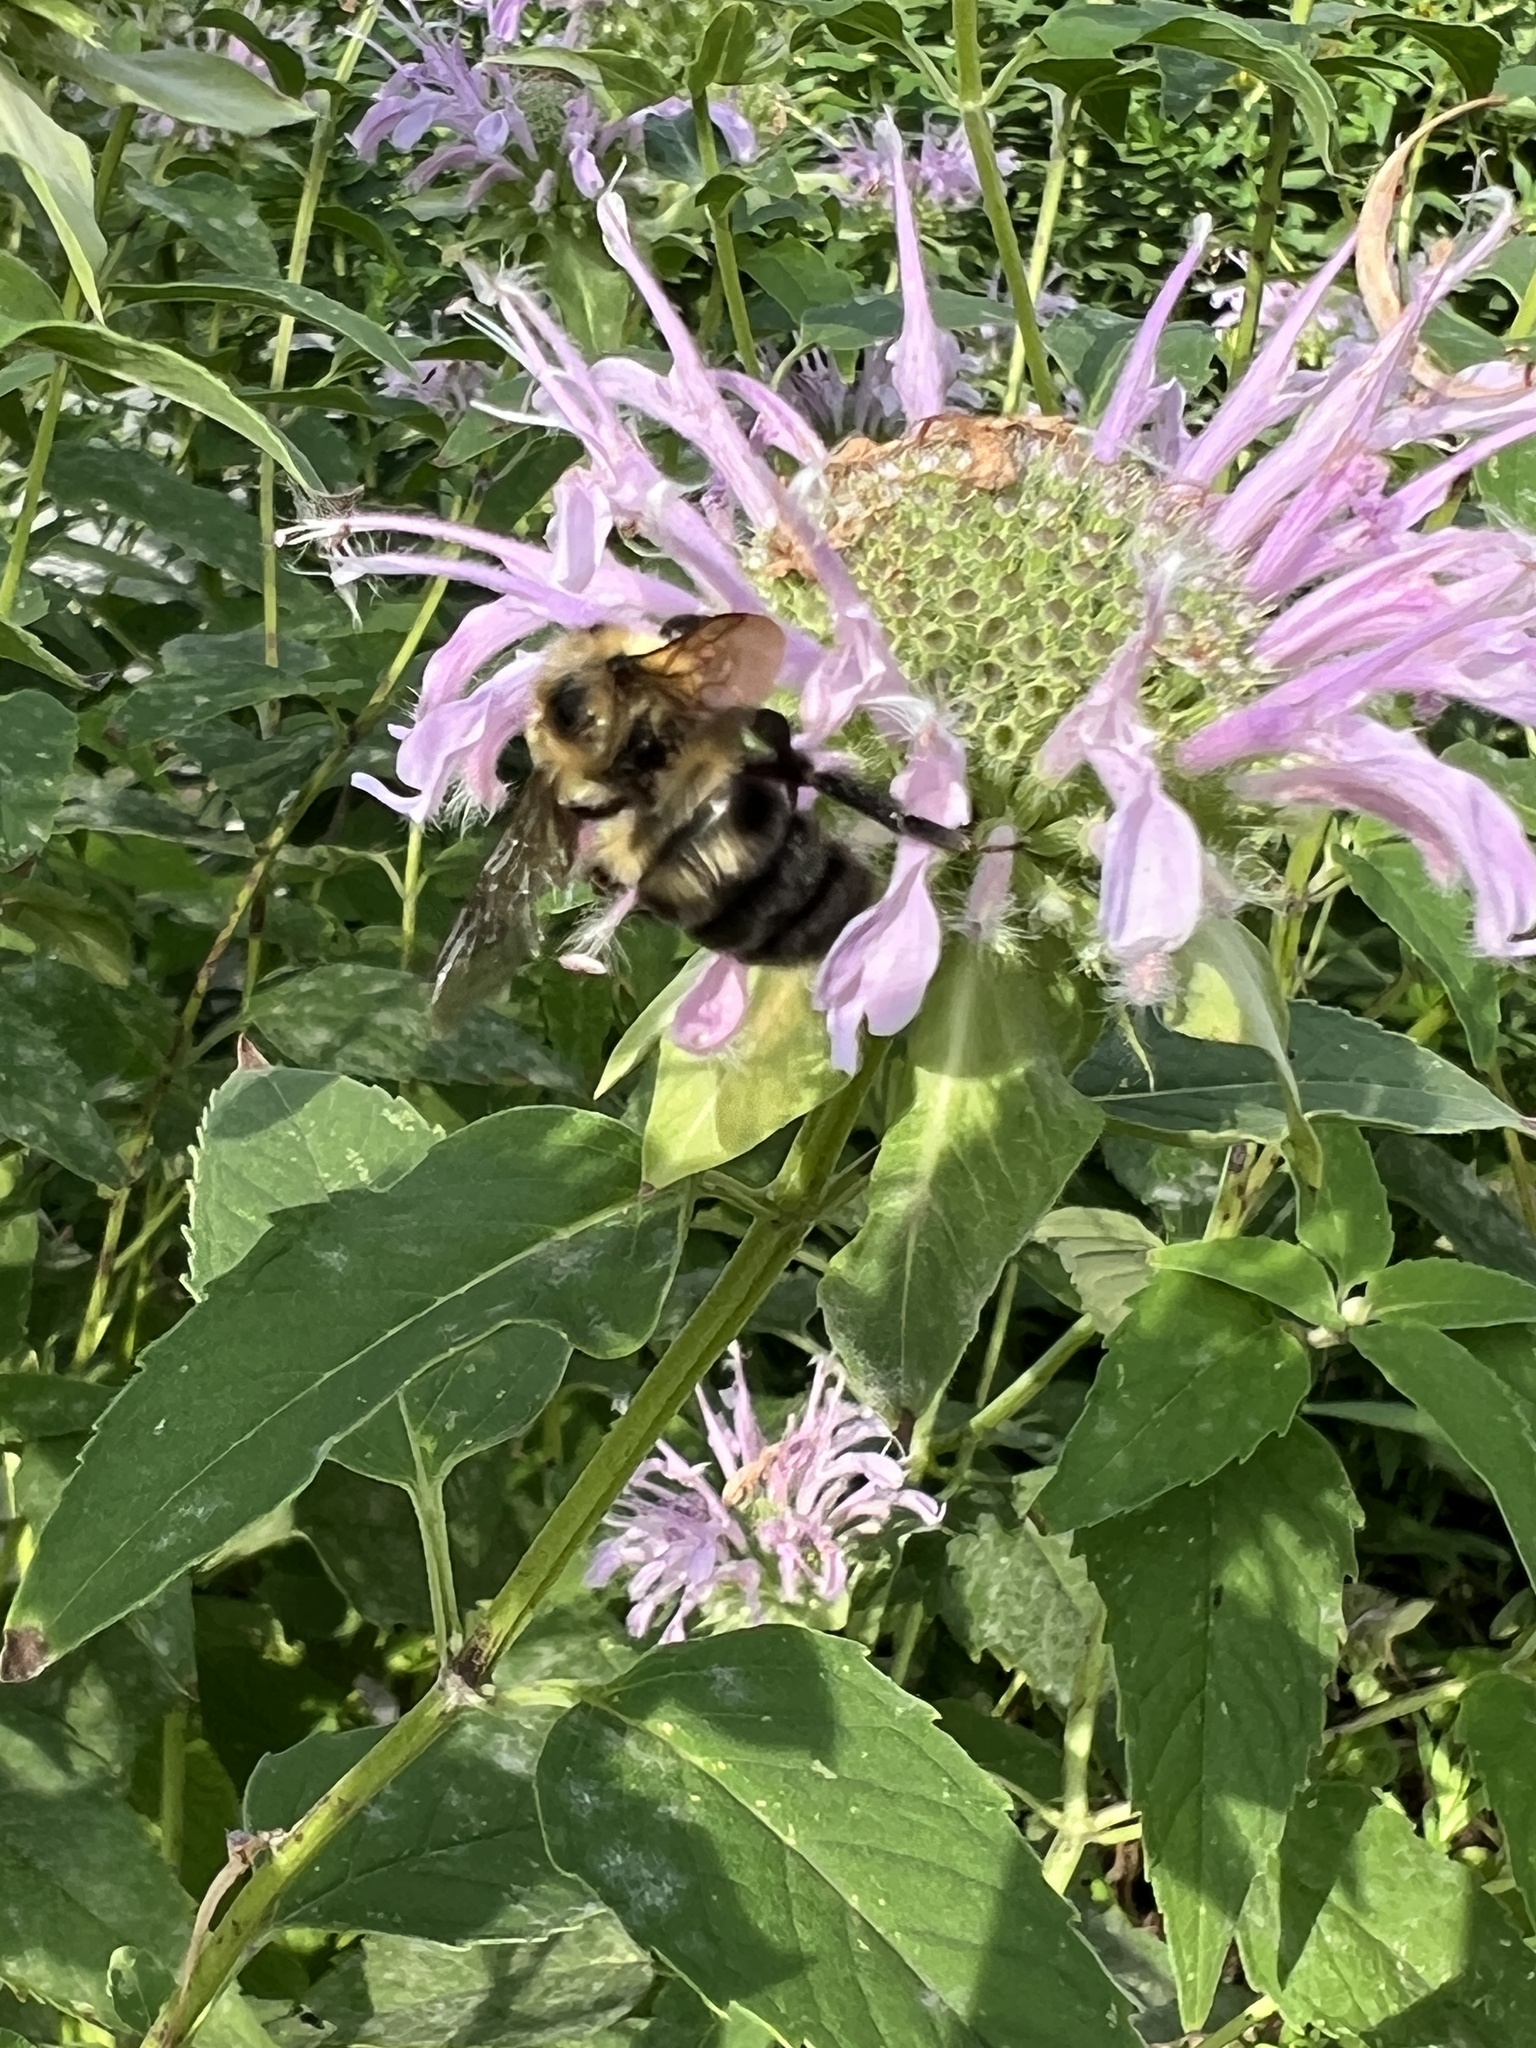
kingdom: Animalia
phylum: Arthropoda
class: Insecta
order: Hymenoptera
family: Apidae
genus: Bombus
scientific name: Bombus bimaculatus
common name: Two-spotted bumble bee
